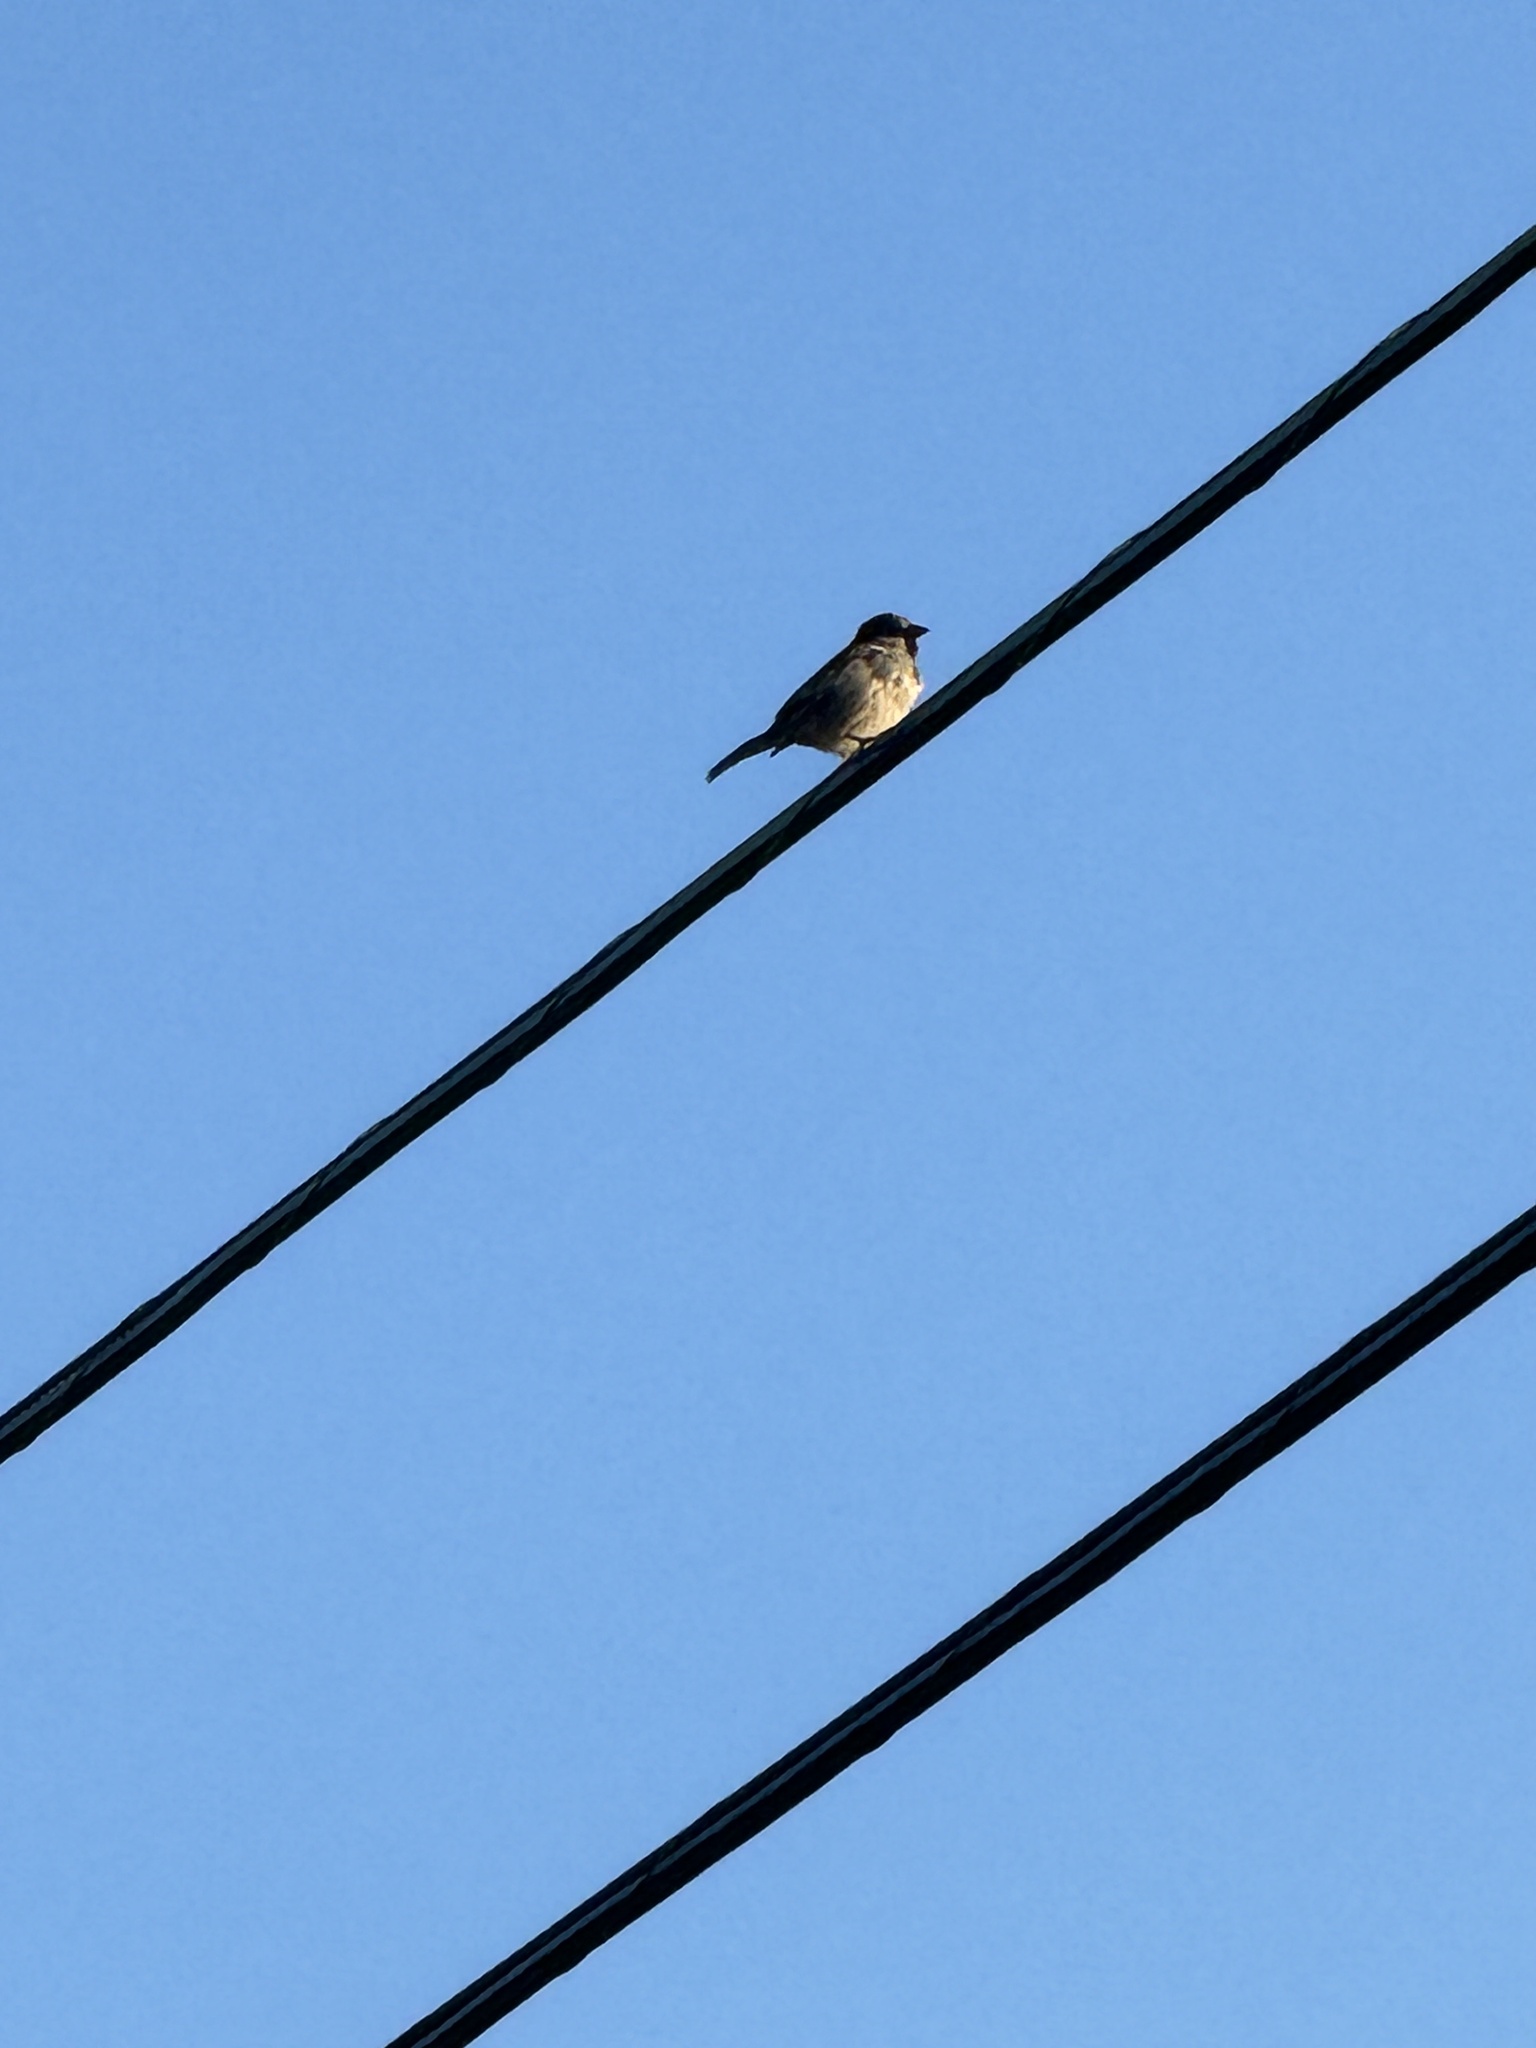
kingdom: Animalia
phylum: Chordata
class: Aves
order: Passeriformes
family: Passeridae
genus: Passer
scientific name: Passer domesticus
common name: House sparrow
